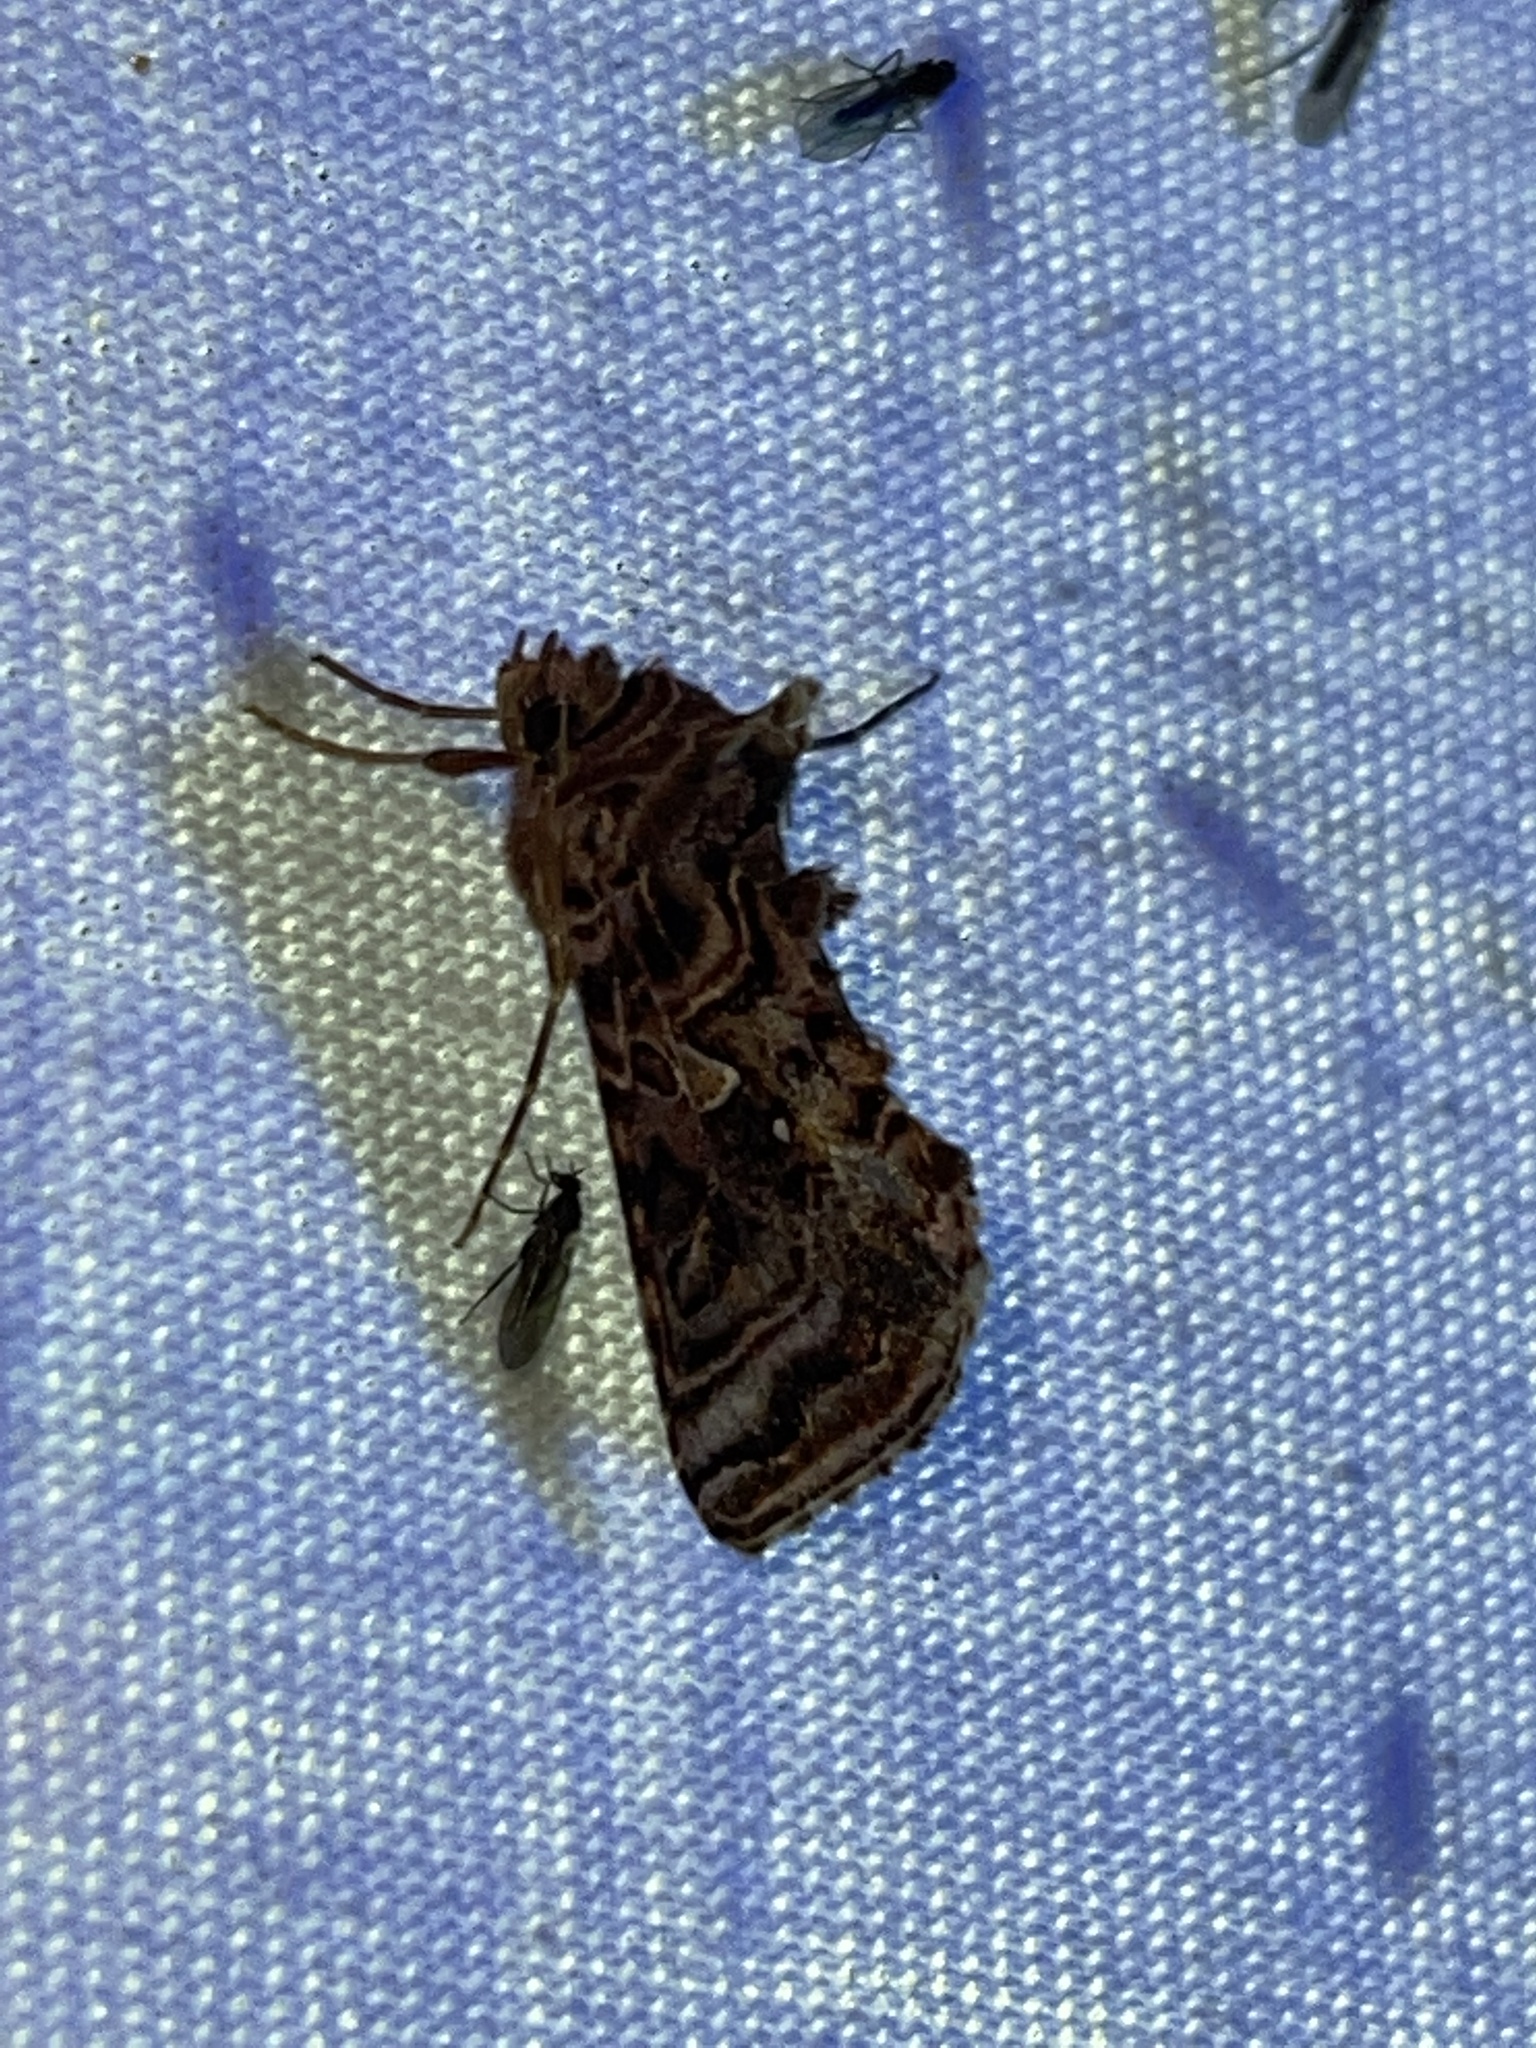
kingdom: Animalia
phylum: Arthropoda
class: Insecta
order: Lepidoptera
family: Noctuidae
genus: Autographa
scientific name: Autographa mappa
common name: Wavy chestnut y moth
